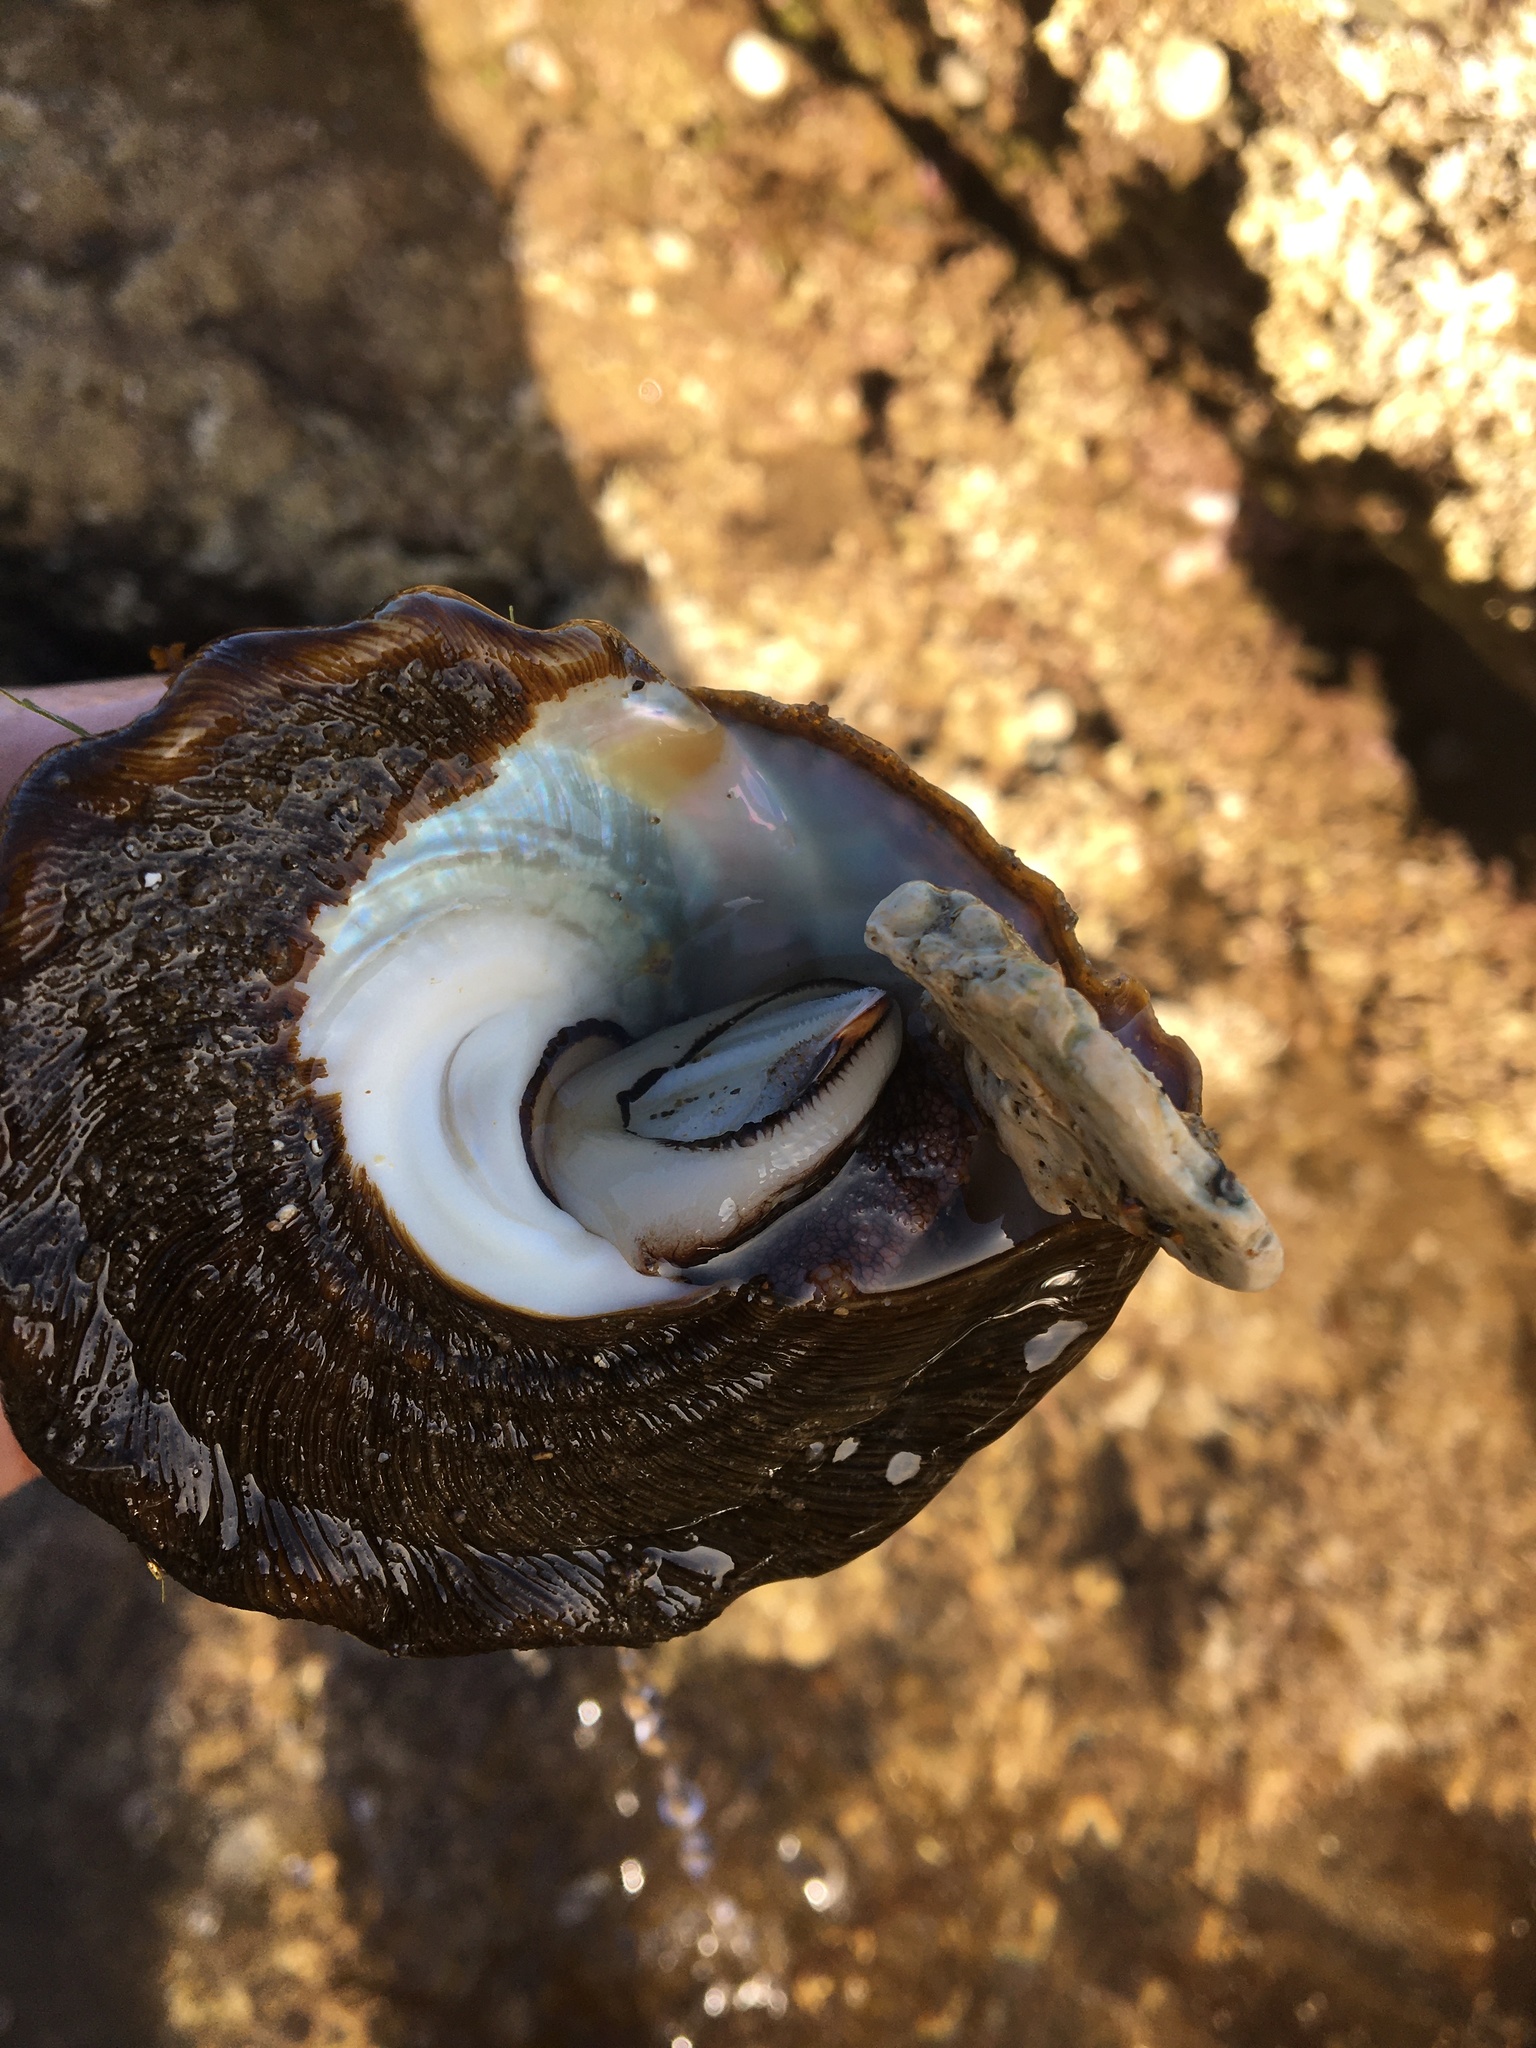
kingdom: Animalia
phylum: Mollusca
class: Gastropoda
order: Trochida
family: Turbinidae
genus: Megastraea
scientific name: Megastraea undosa
